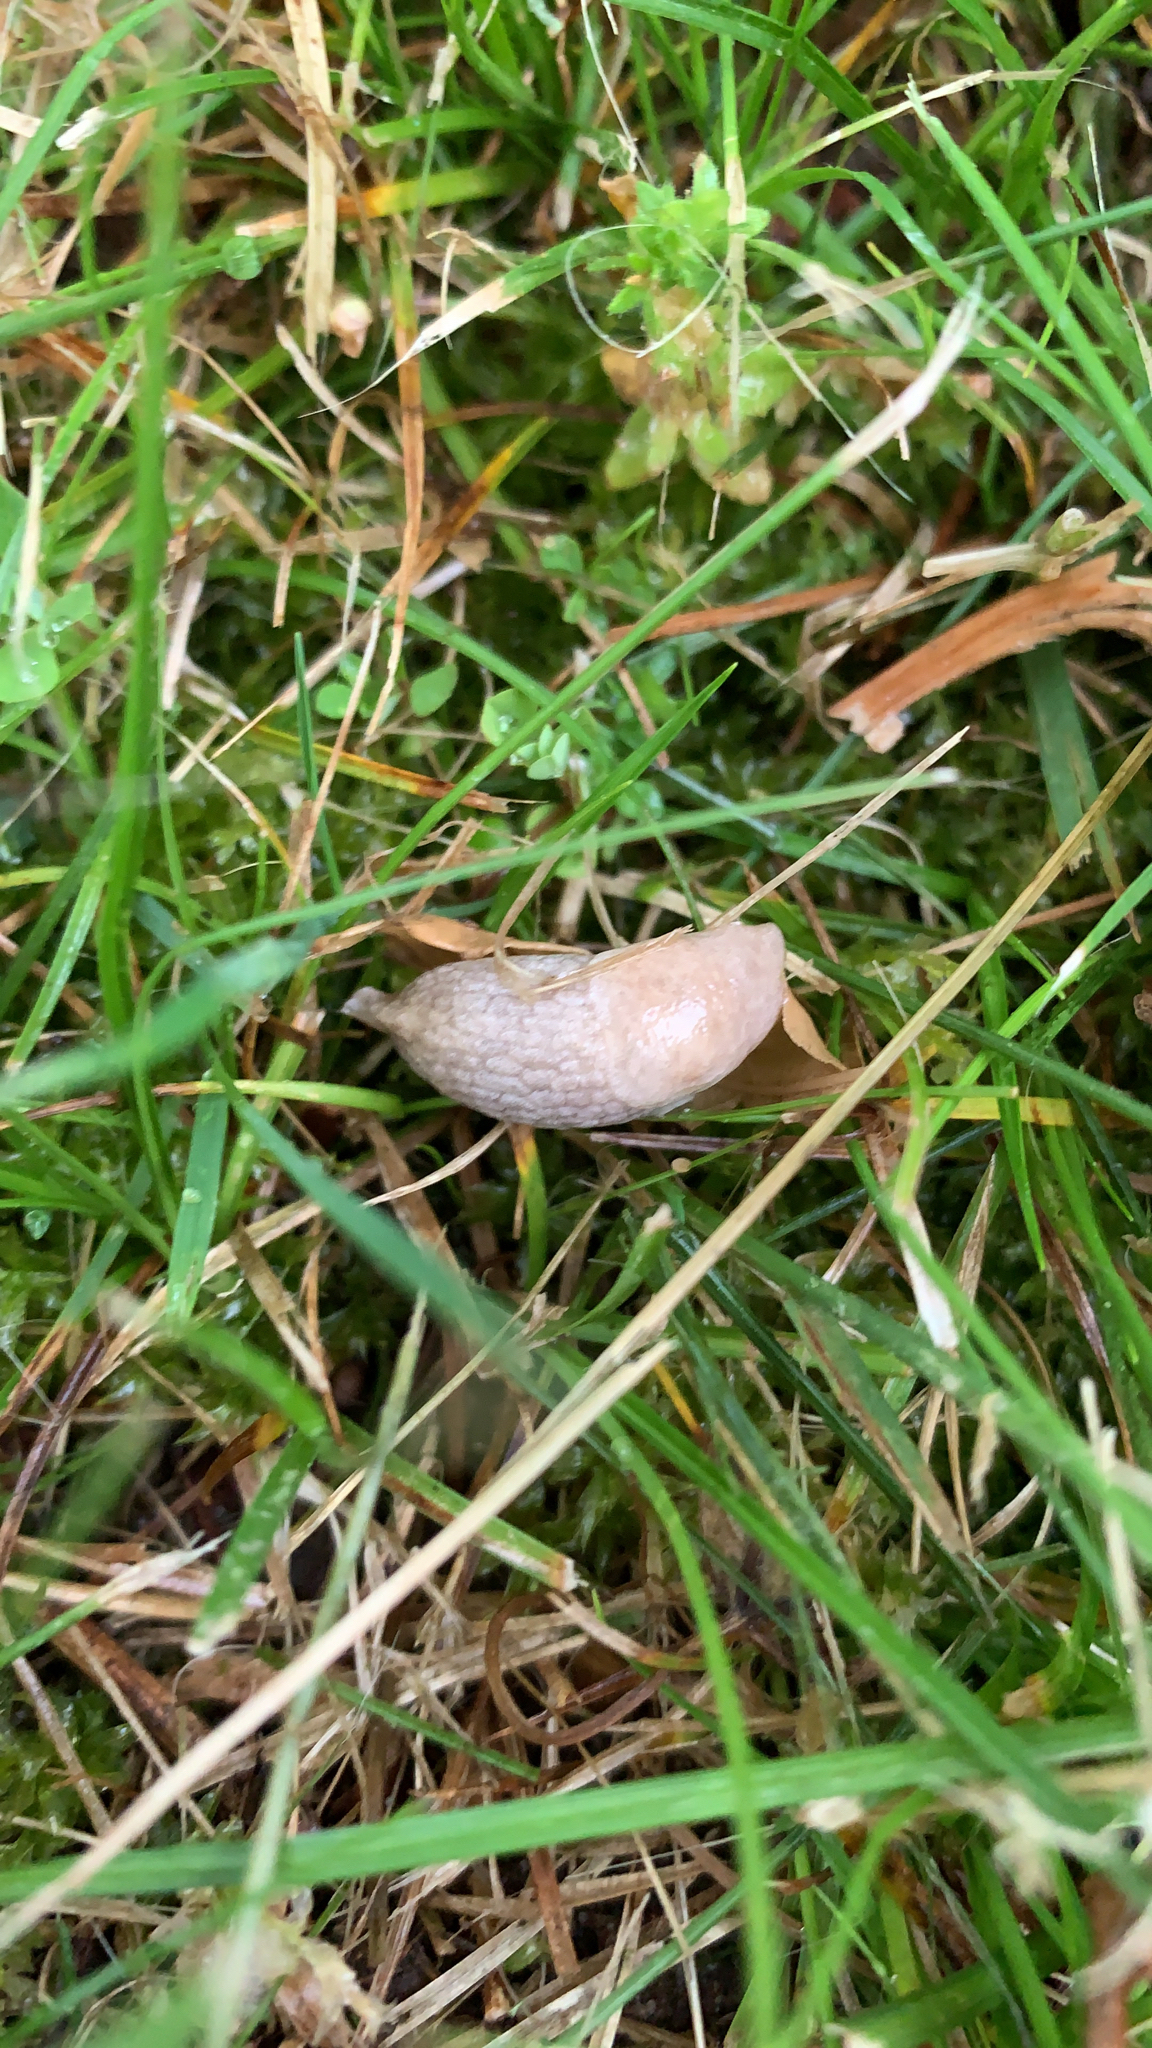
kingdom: Animalia
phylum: Mollusca
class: Gastropoda
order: Stylommatophora
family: Agriolimacidae
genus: Deroceras
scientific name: Deroceras reticulatum
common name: Gray field slug
